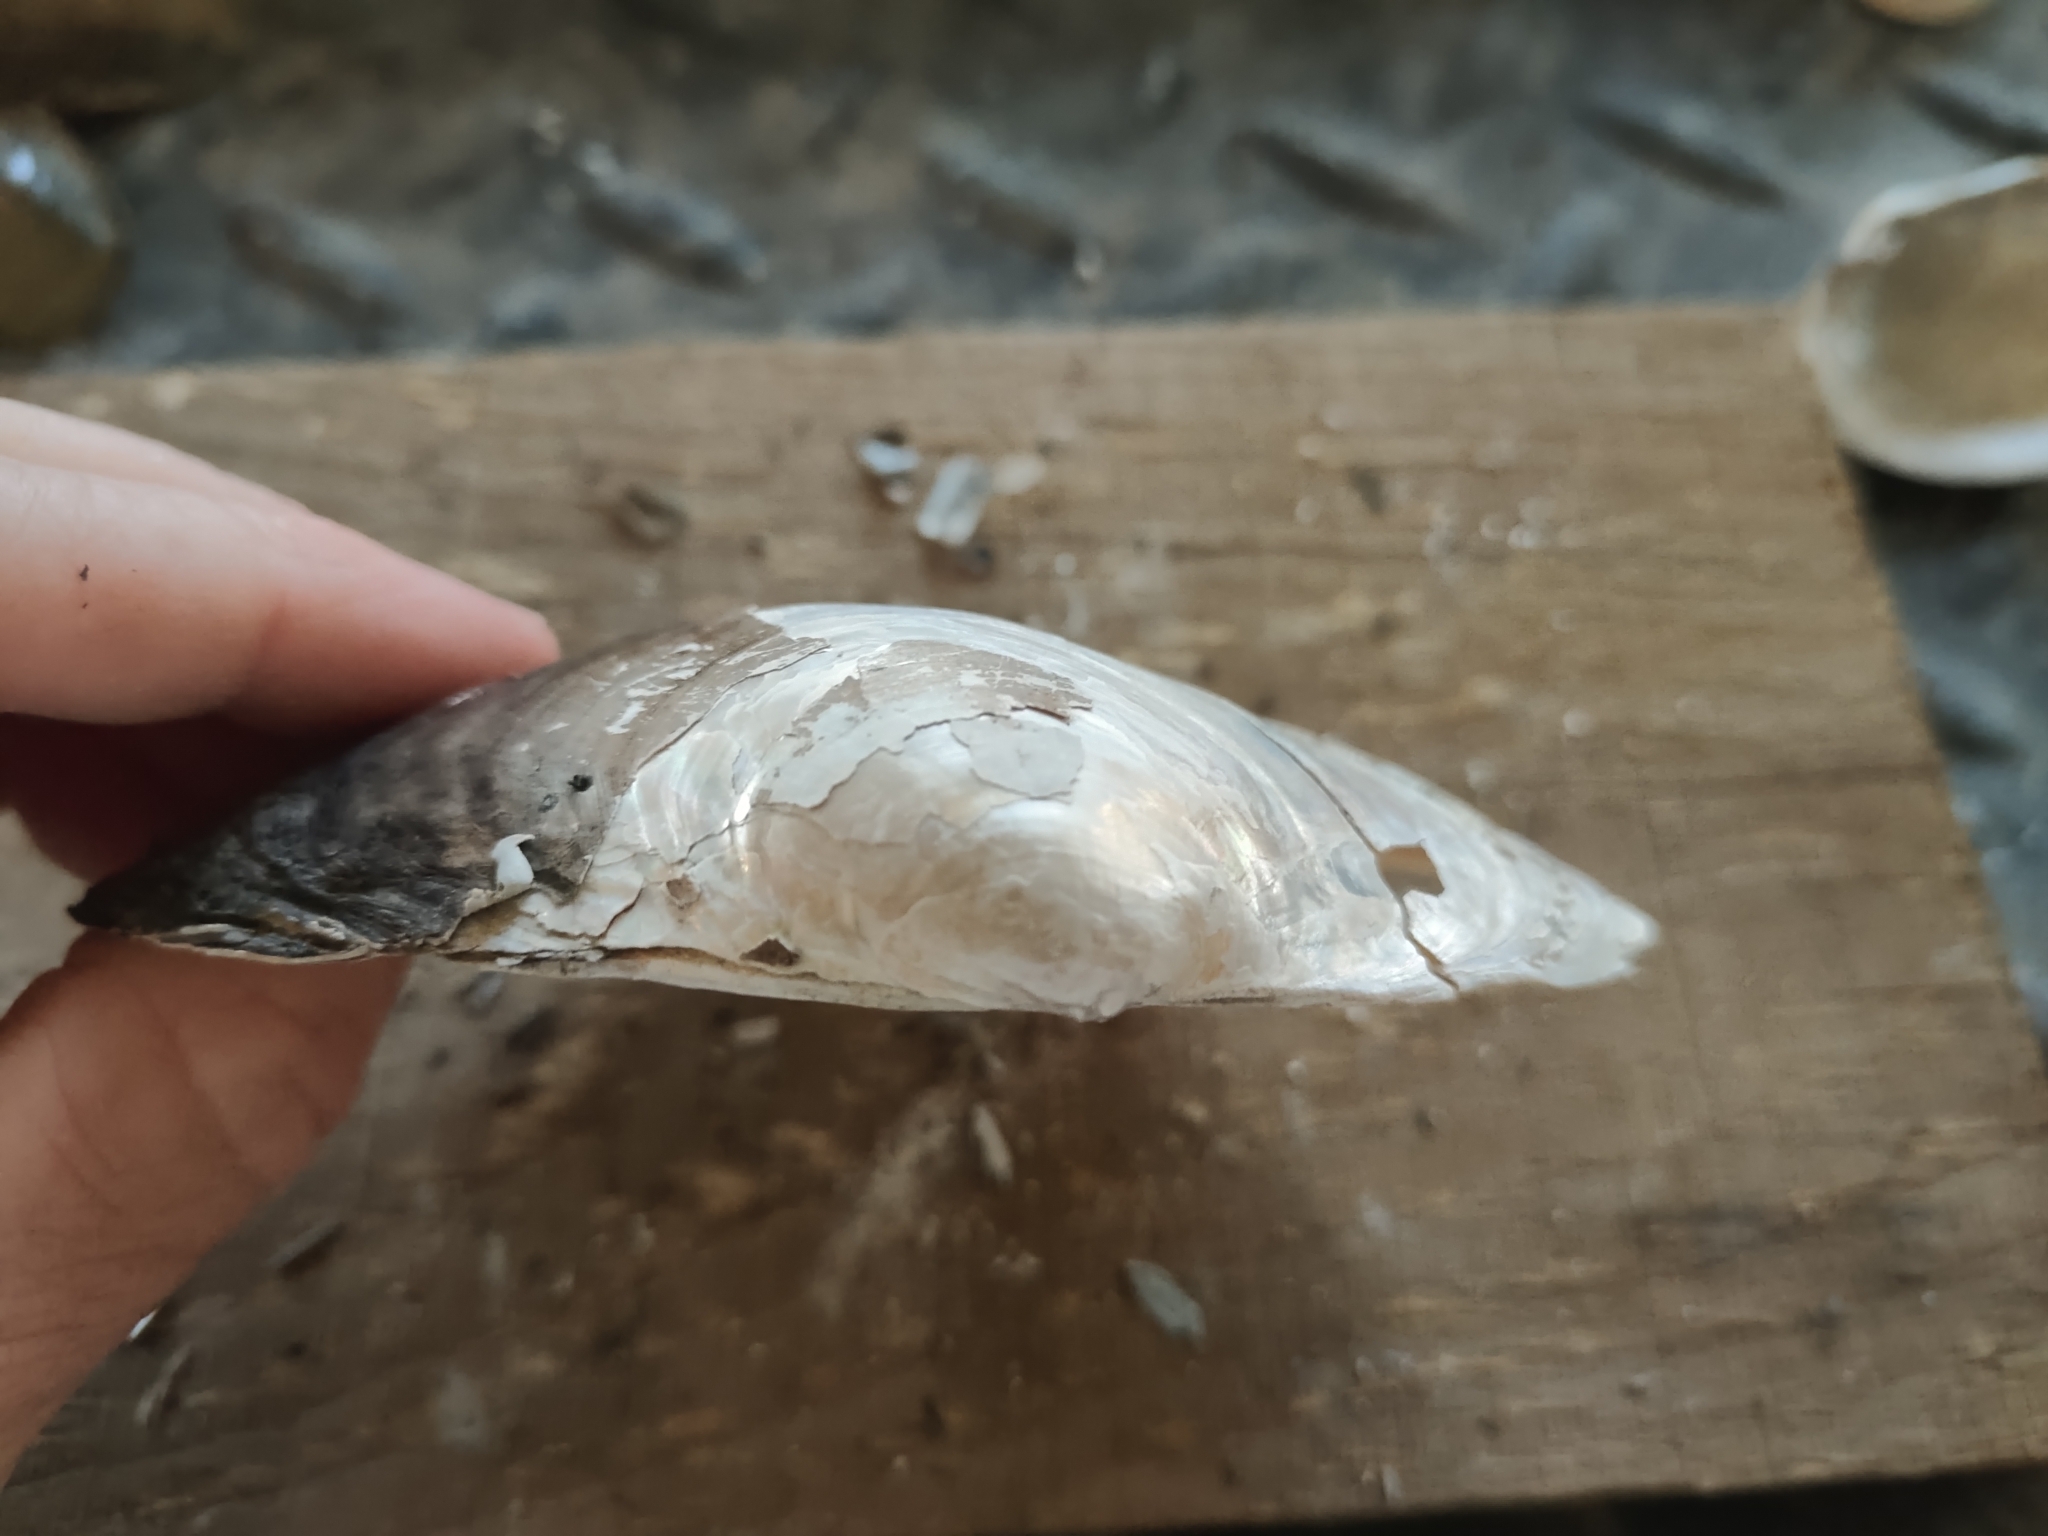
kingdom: Animalia
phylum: Mollusca
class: Bivalvia
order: Unionida
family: Unionidae
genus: Pyganodon
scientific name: Pyganodon grandis
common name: Giant floater
